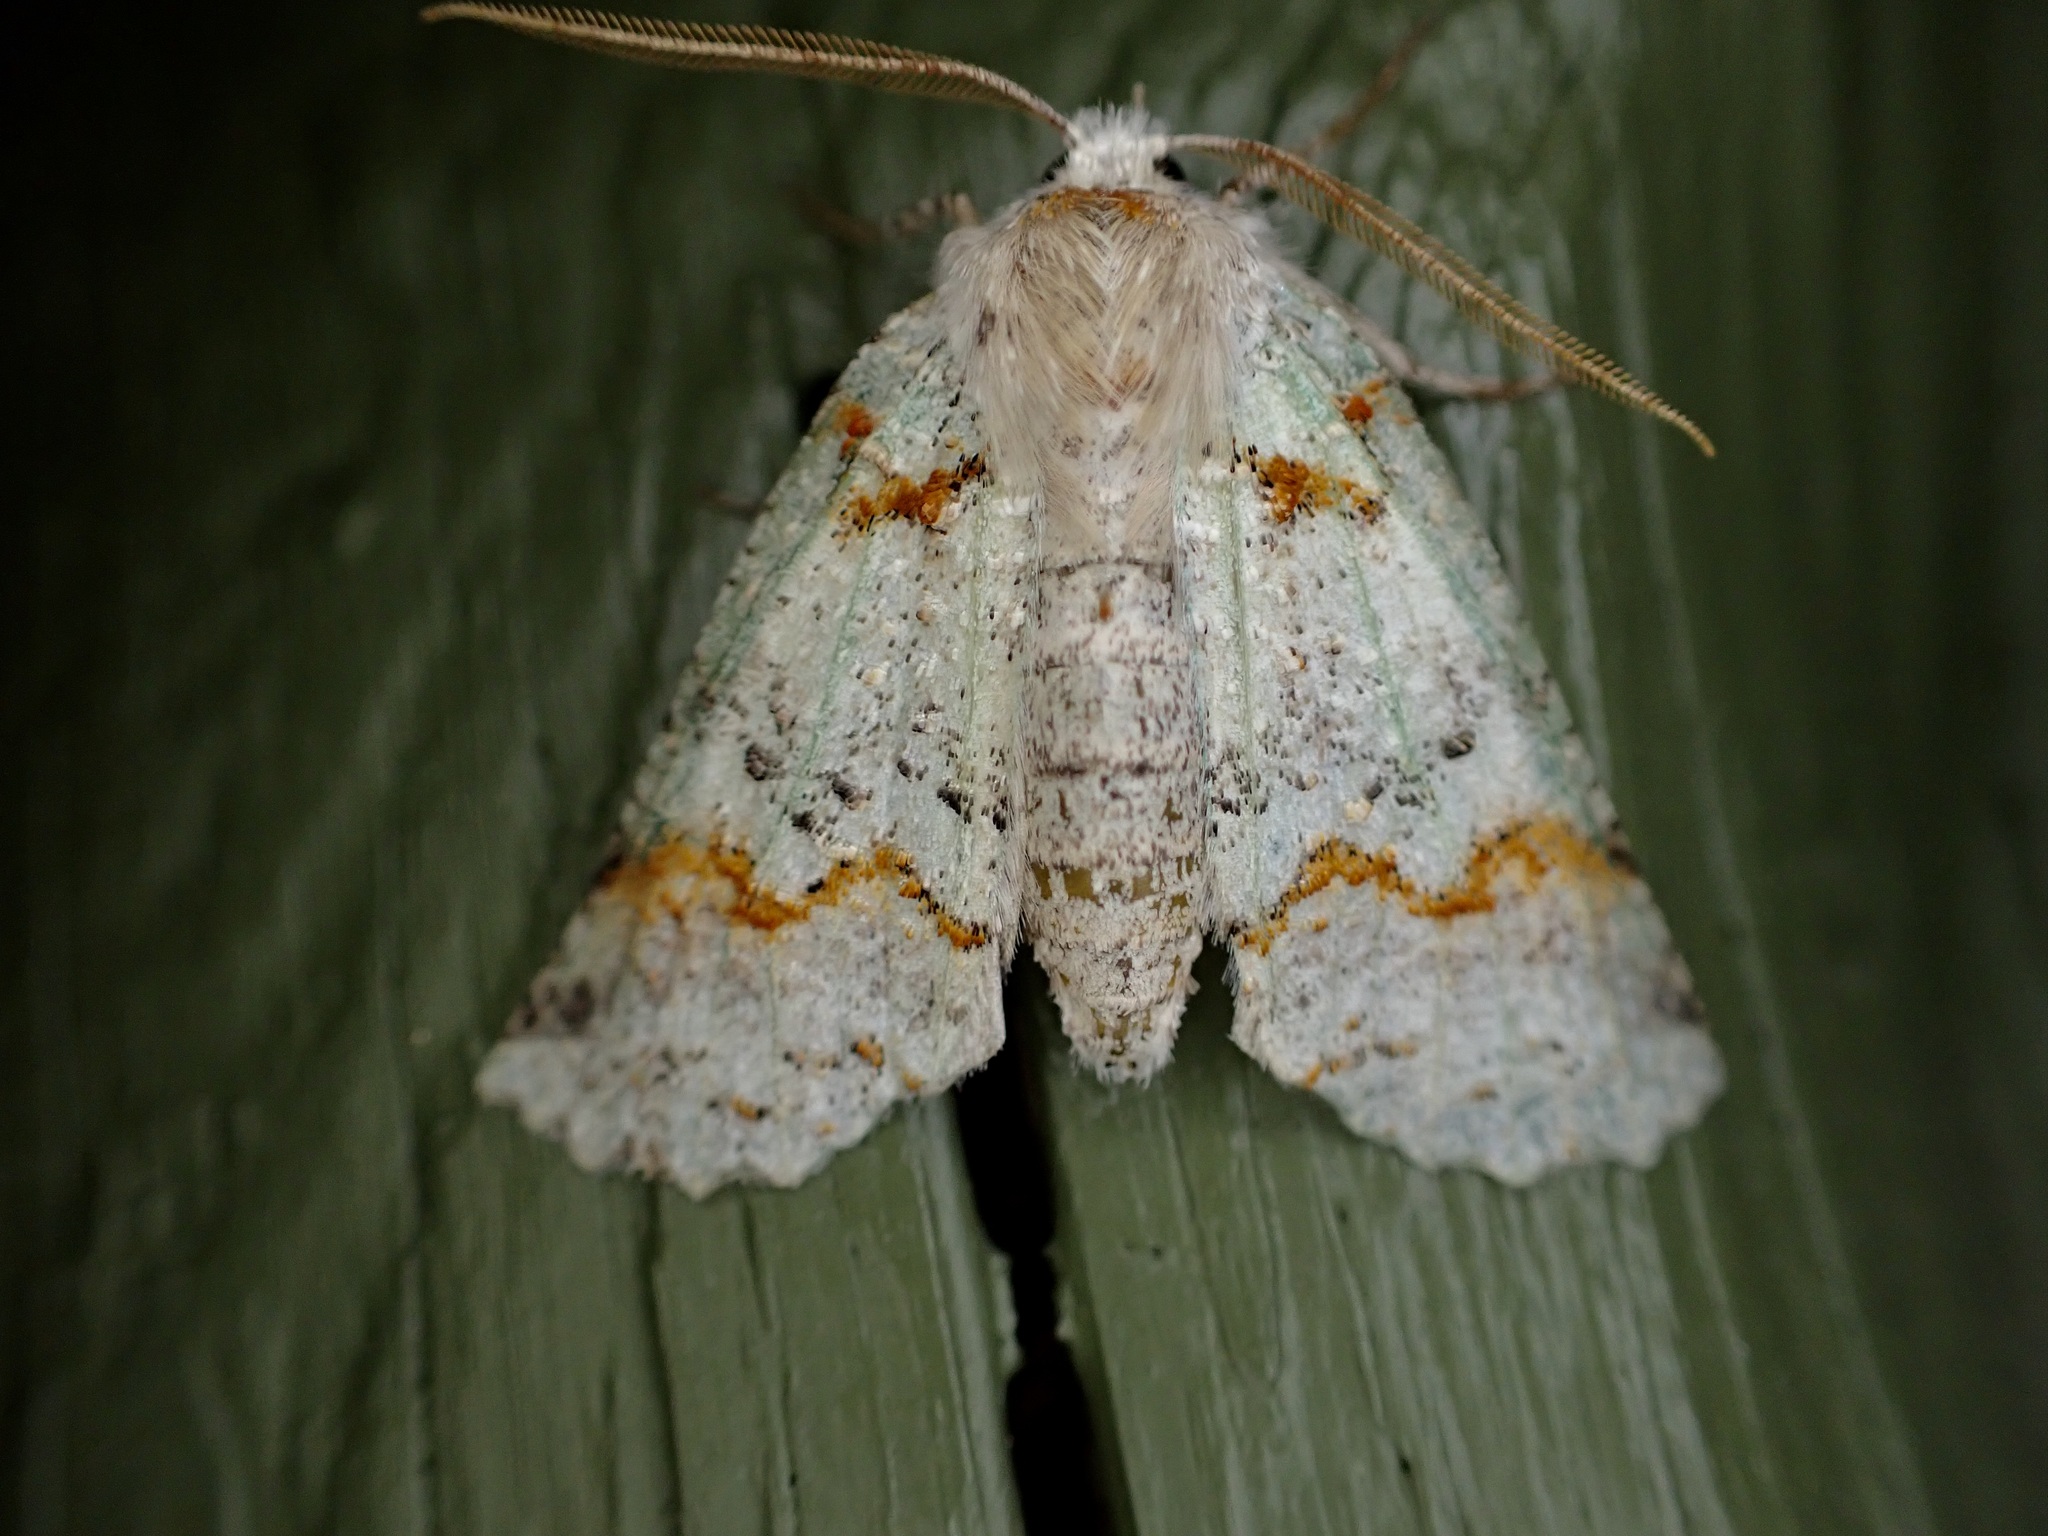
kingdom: Animalia
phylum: Arthropoda
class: Insecta
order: Lepidoptera
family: Geometridae
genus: Declana
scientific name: Declana floccosa
